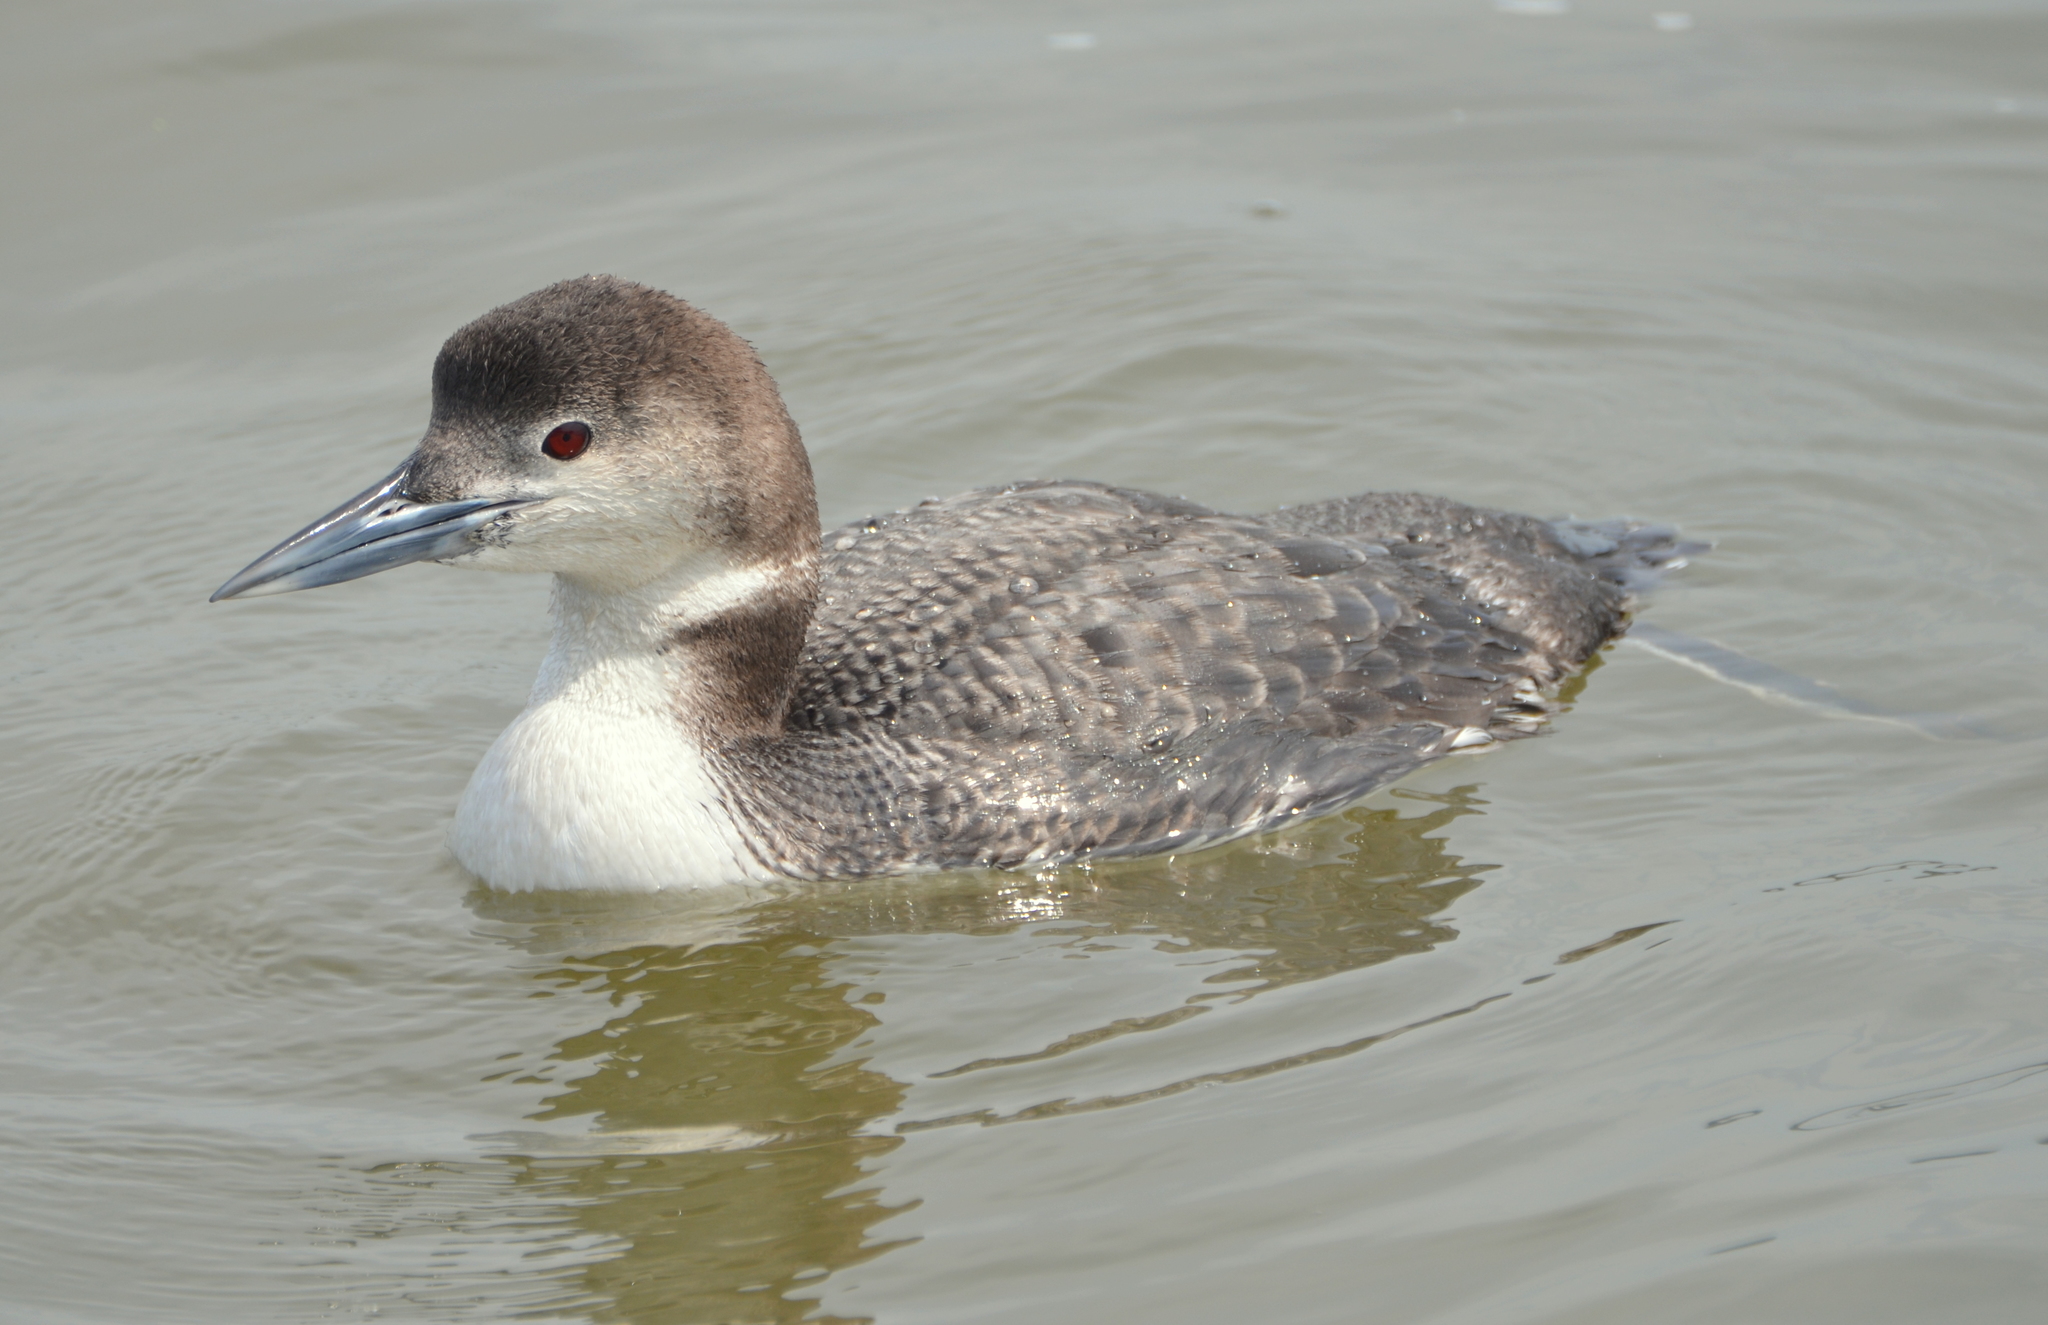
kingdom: Animalia
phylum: Chordata
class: Aves
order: Gaviiformes
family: Gaviidae
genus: Gavia
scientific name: Gavia immer
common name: Common loon
